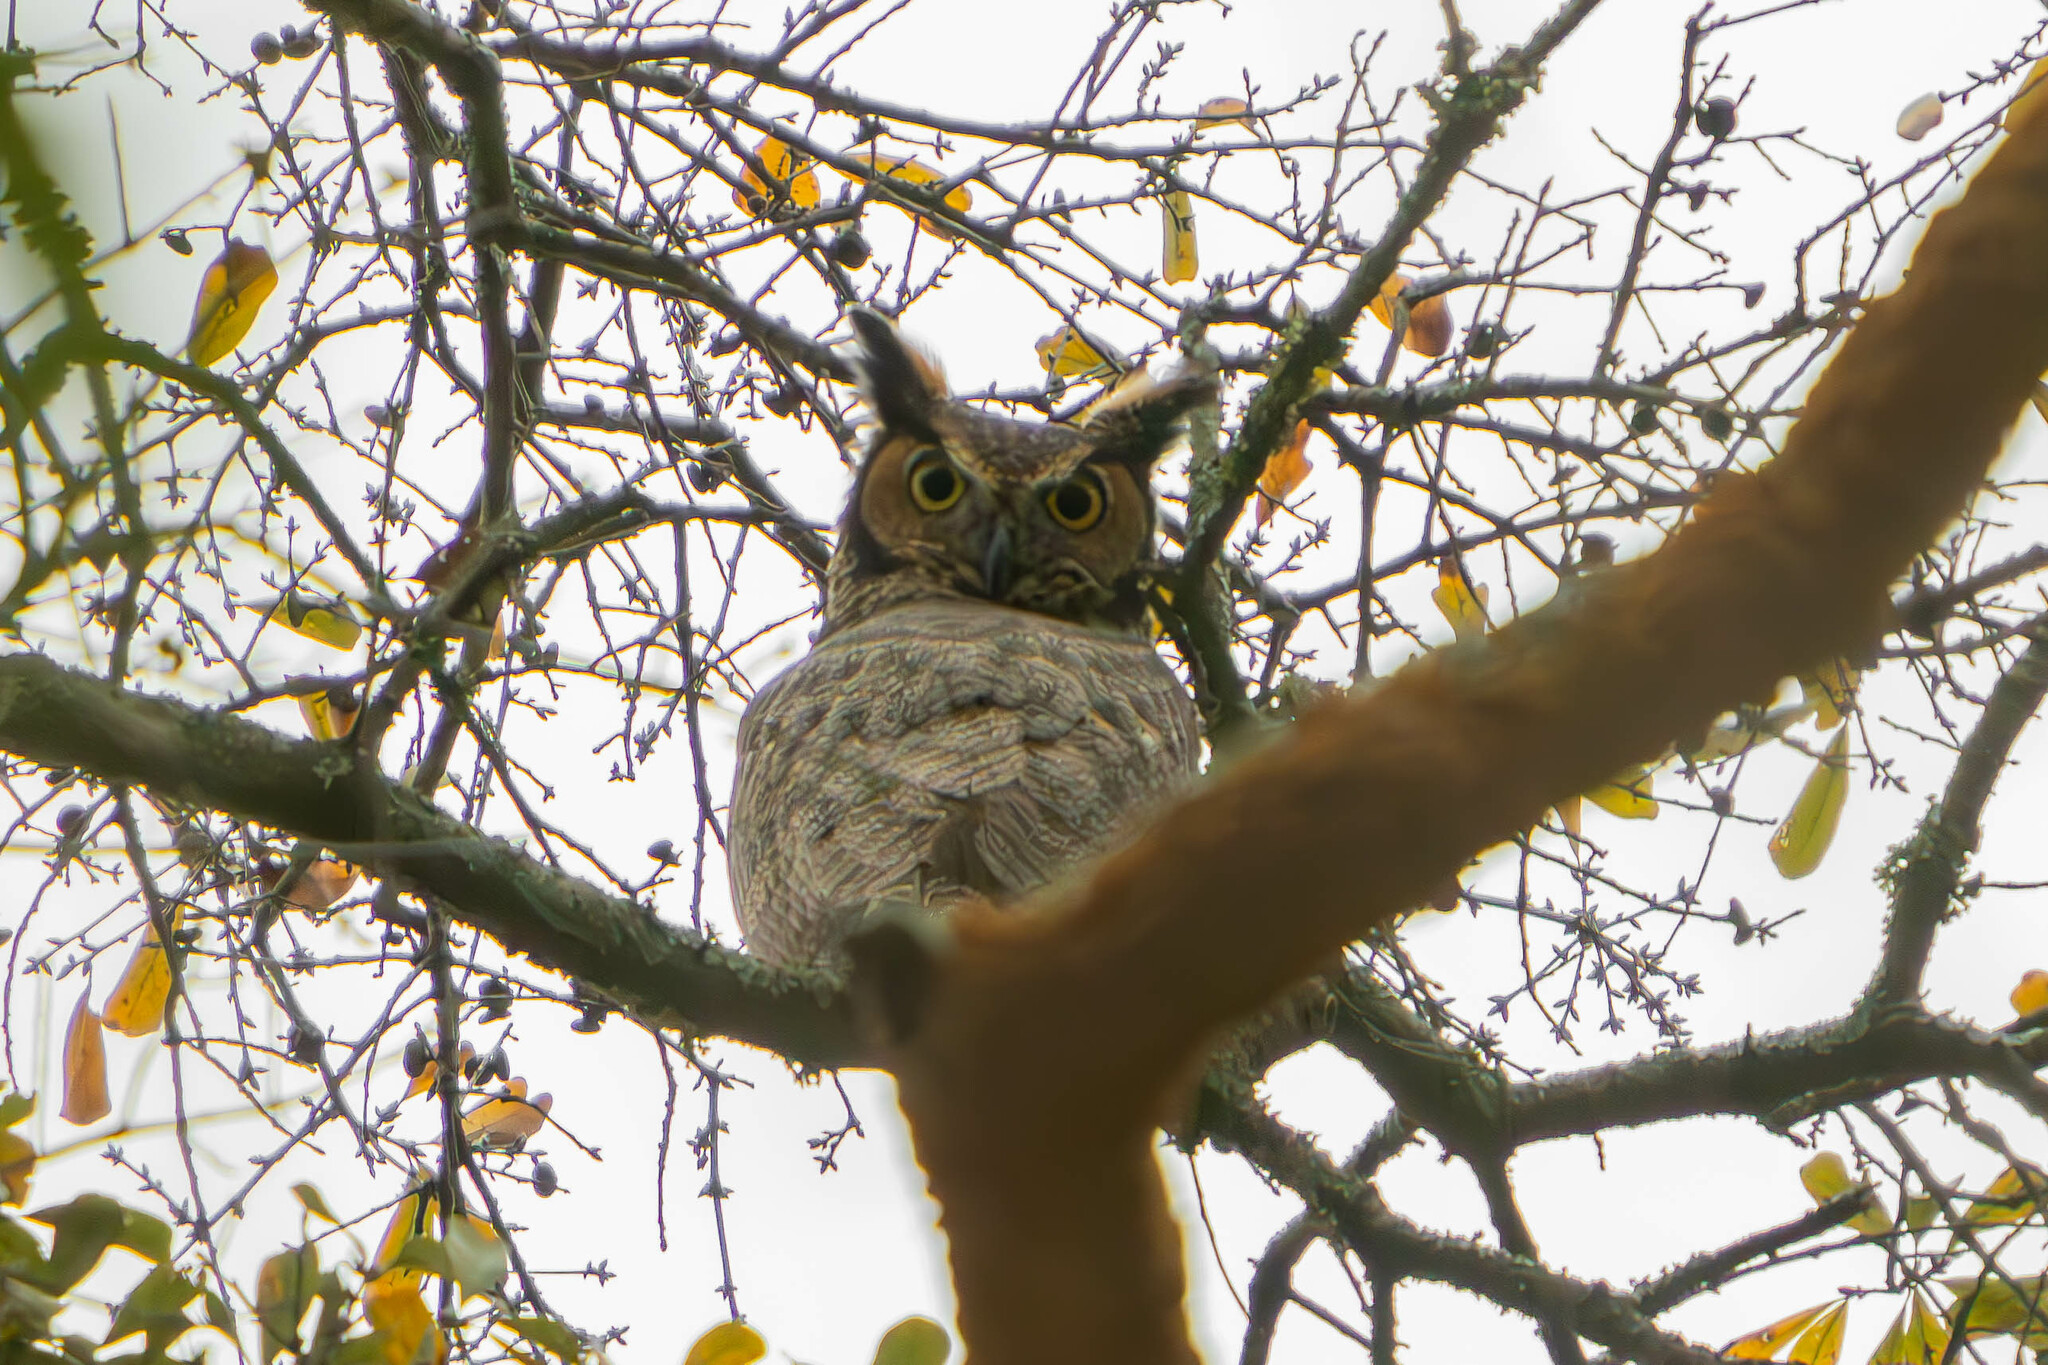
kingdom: Animalia
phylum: Chordata
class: Aves
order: Strigiformes
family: Strigidae
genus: Bubo
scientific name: Bubo virginianus
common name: Great horned owl
